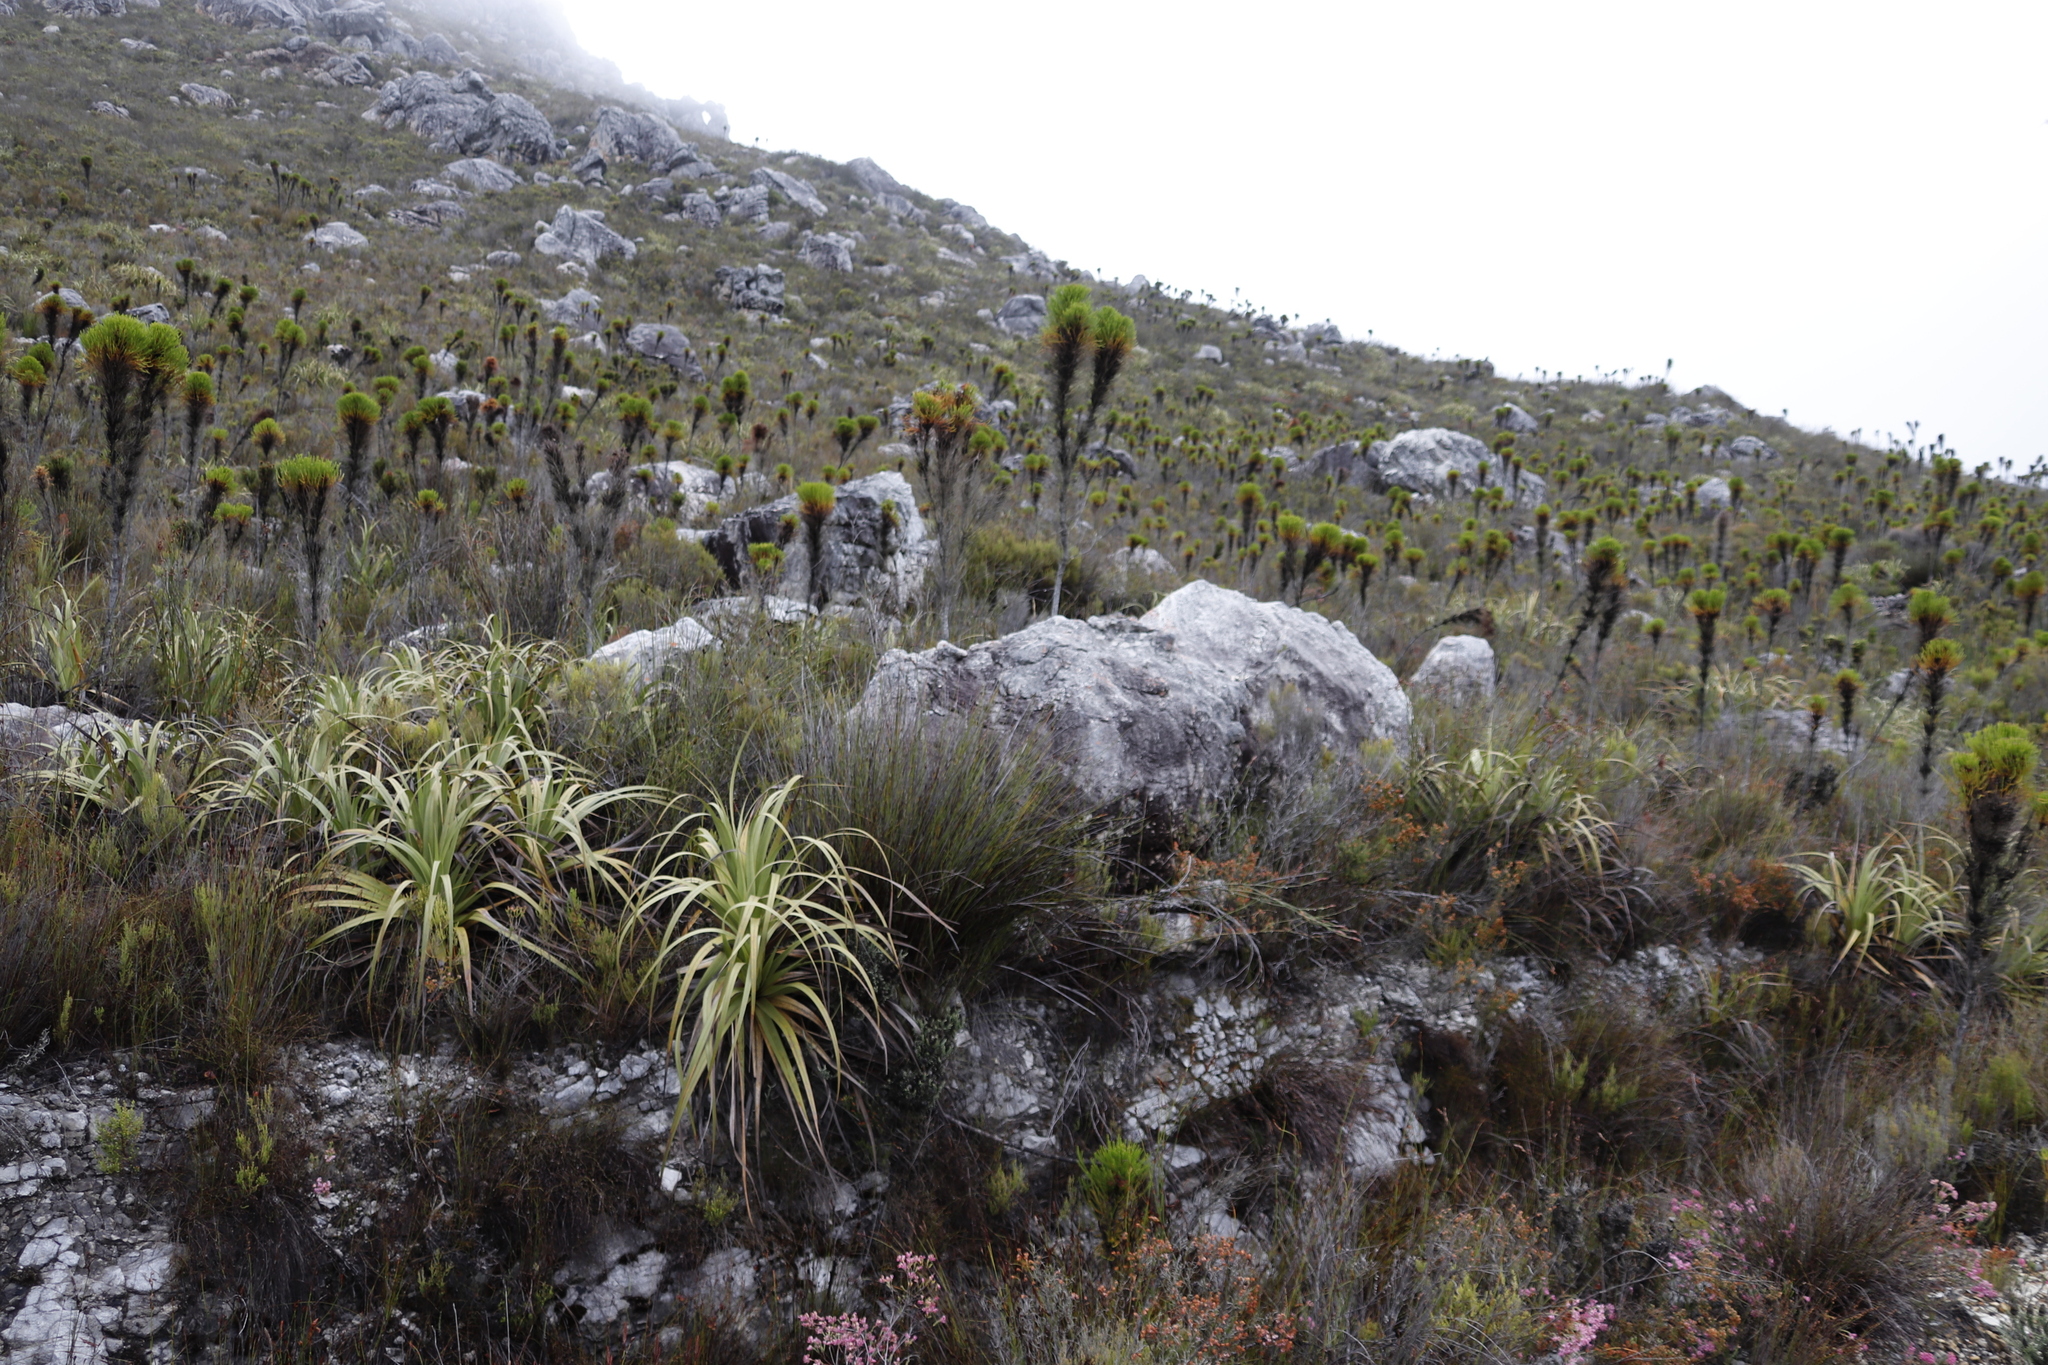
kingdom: Plantae
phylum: Tracheophyta
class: Liliopsida
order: Poales
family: Cyperaceae
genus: Tetraria
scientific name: Tetraria thermalis
